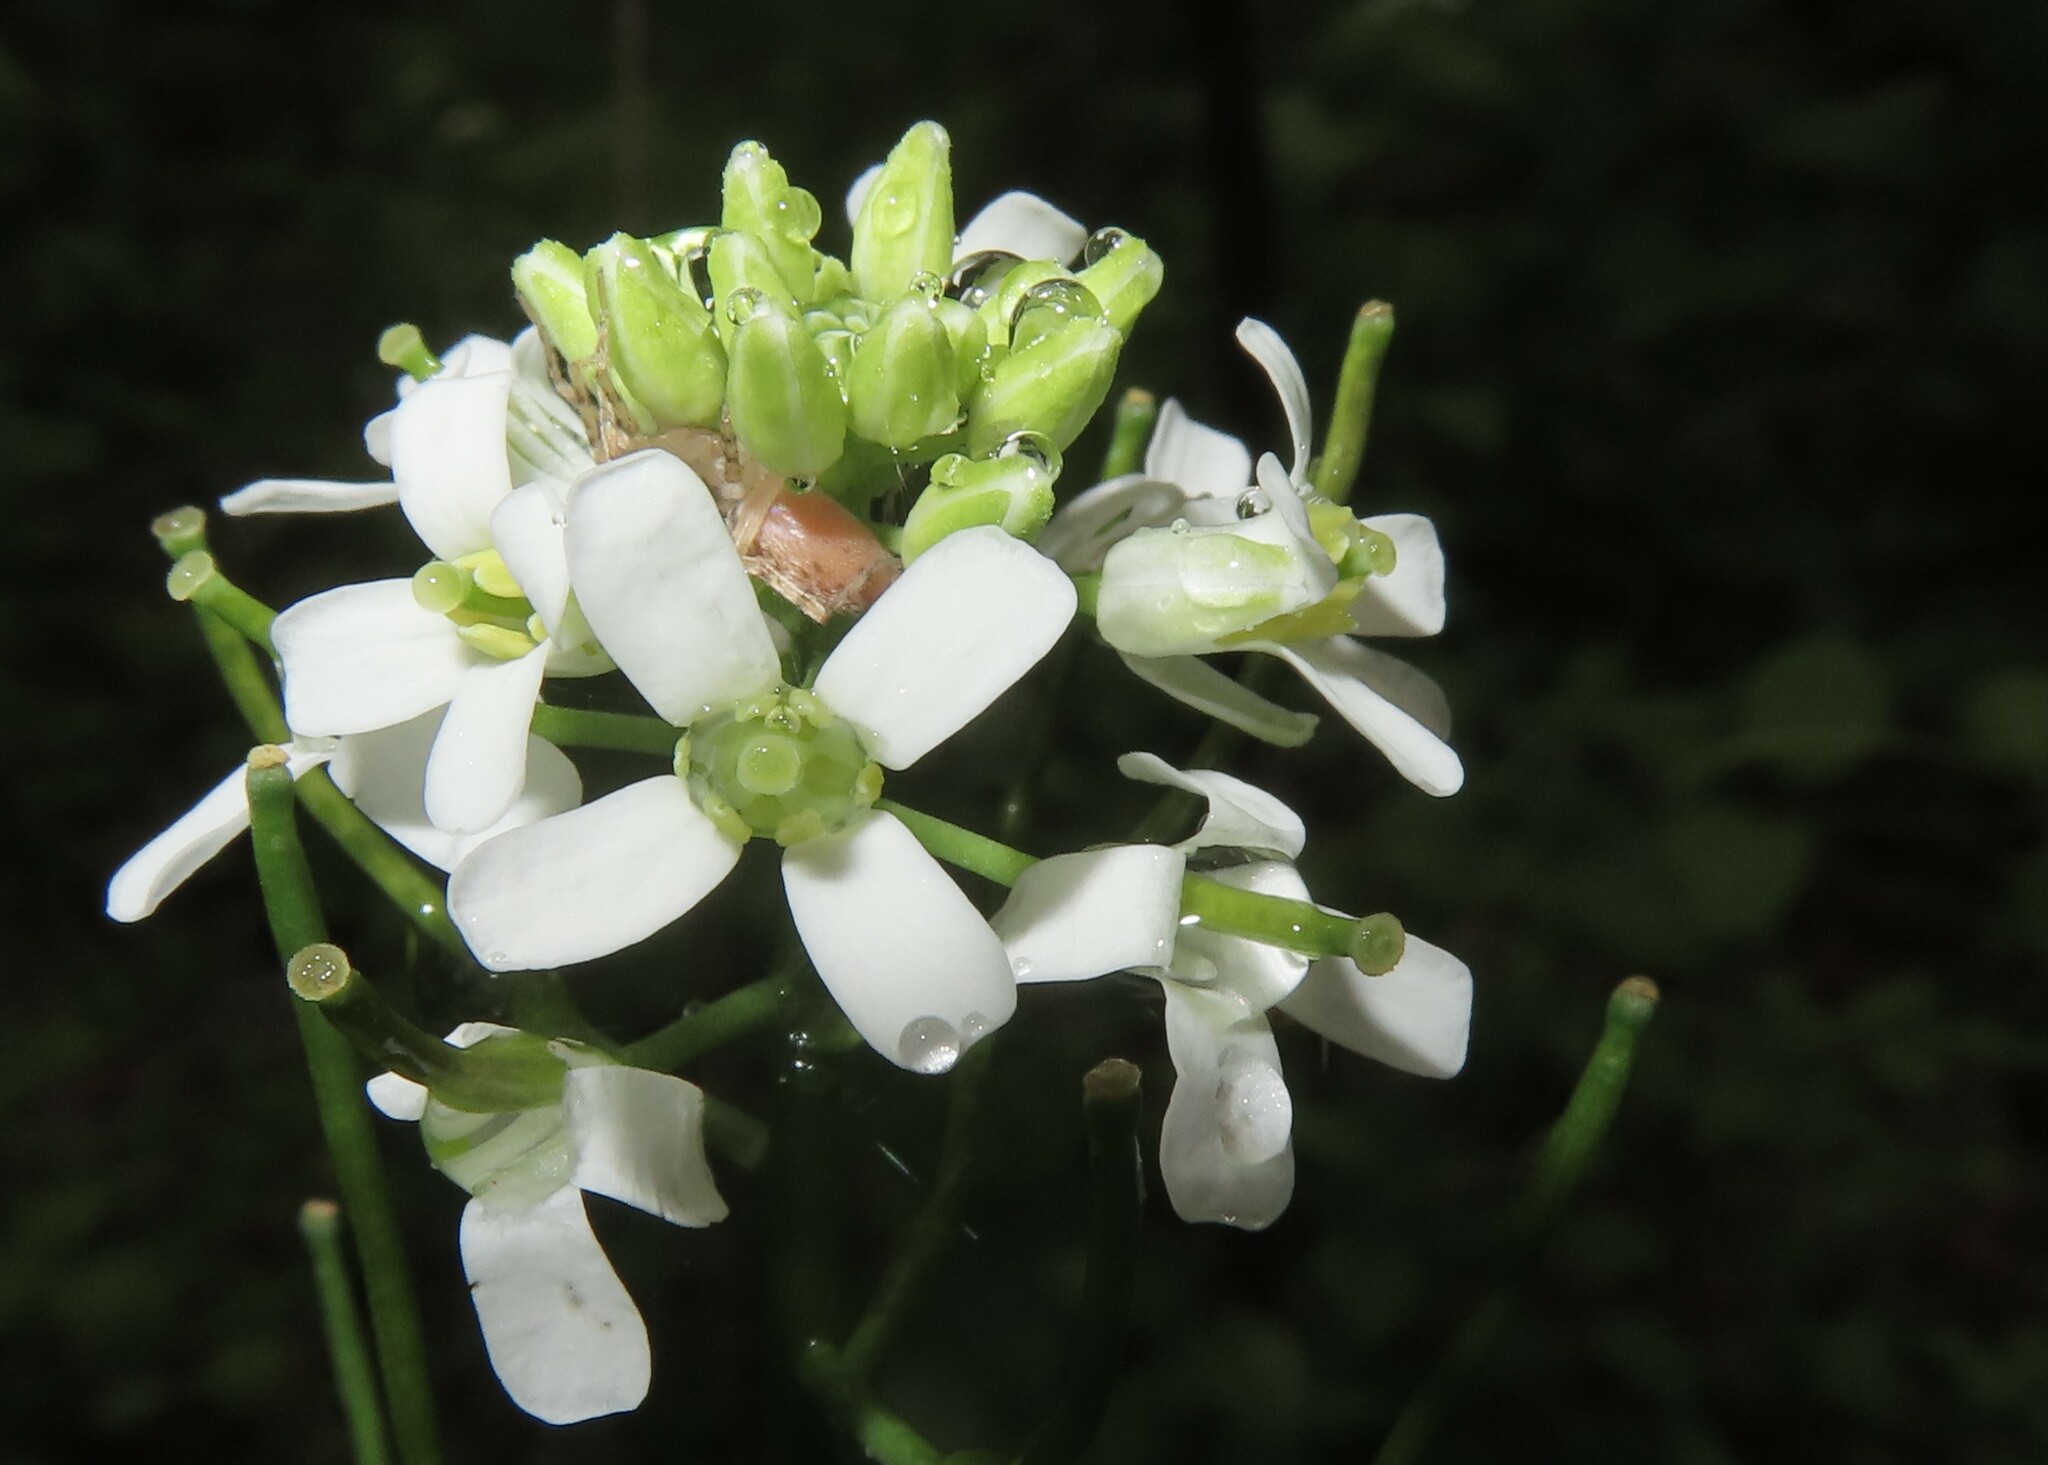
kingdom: Plantae
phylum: Tracheophyta
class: Magnoliopsida
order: Brassicales
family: Brassicaceae
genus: Alliaria
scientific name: Alliaria petiolata
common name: Garlic mustard
